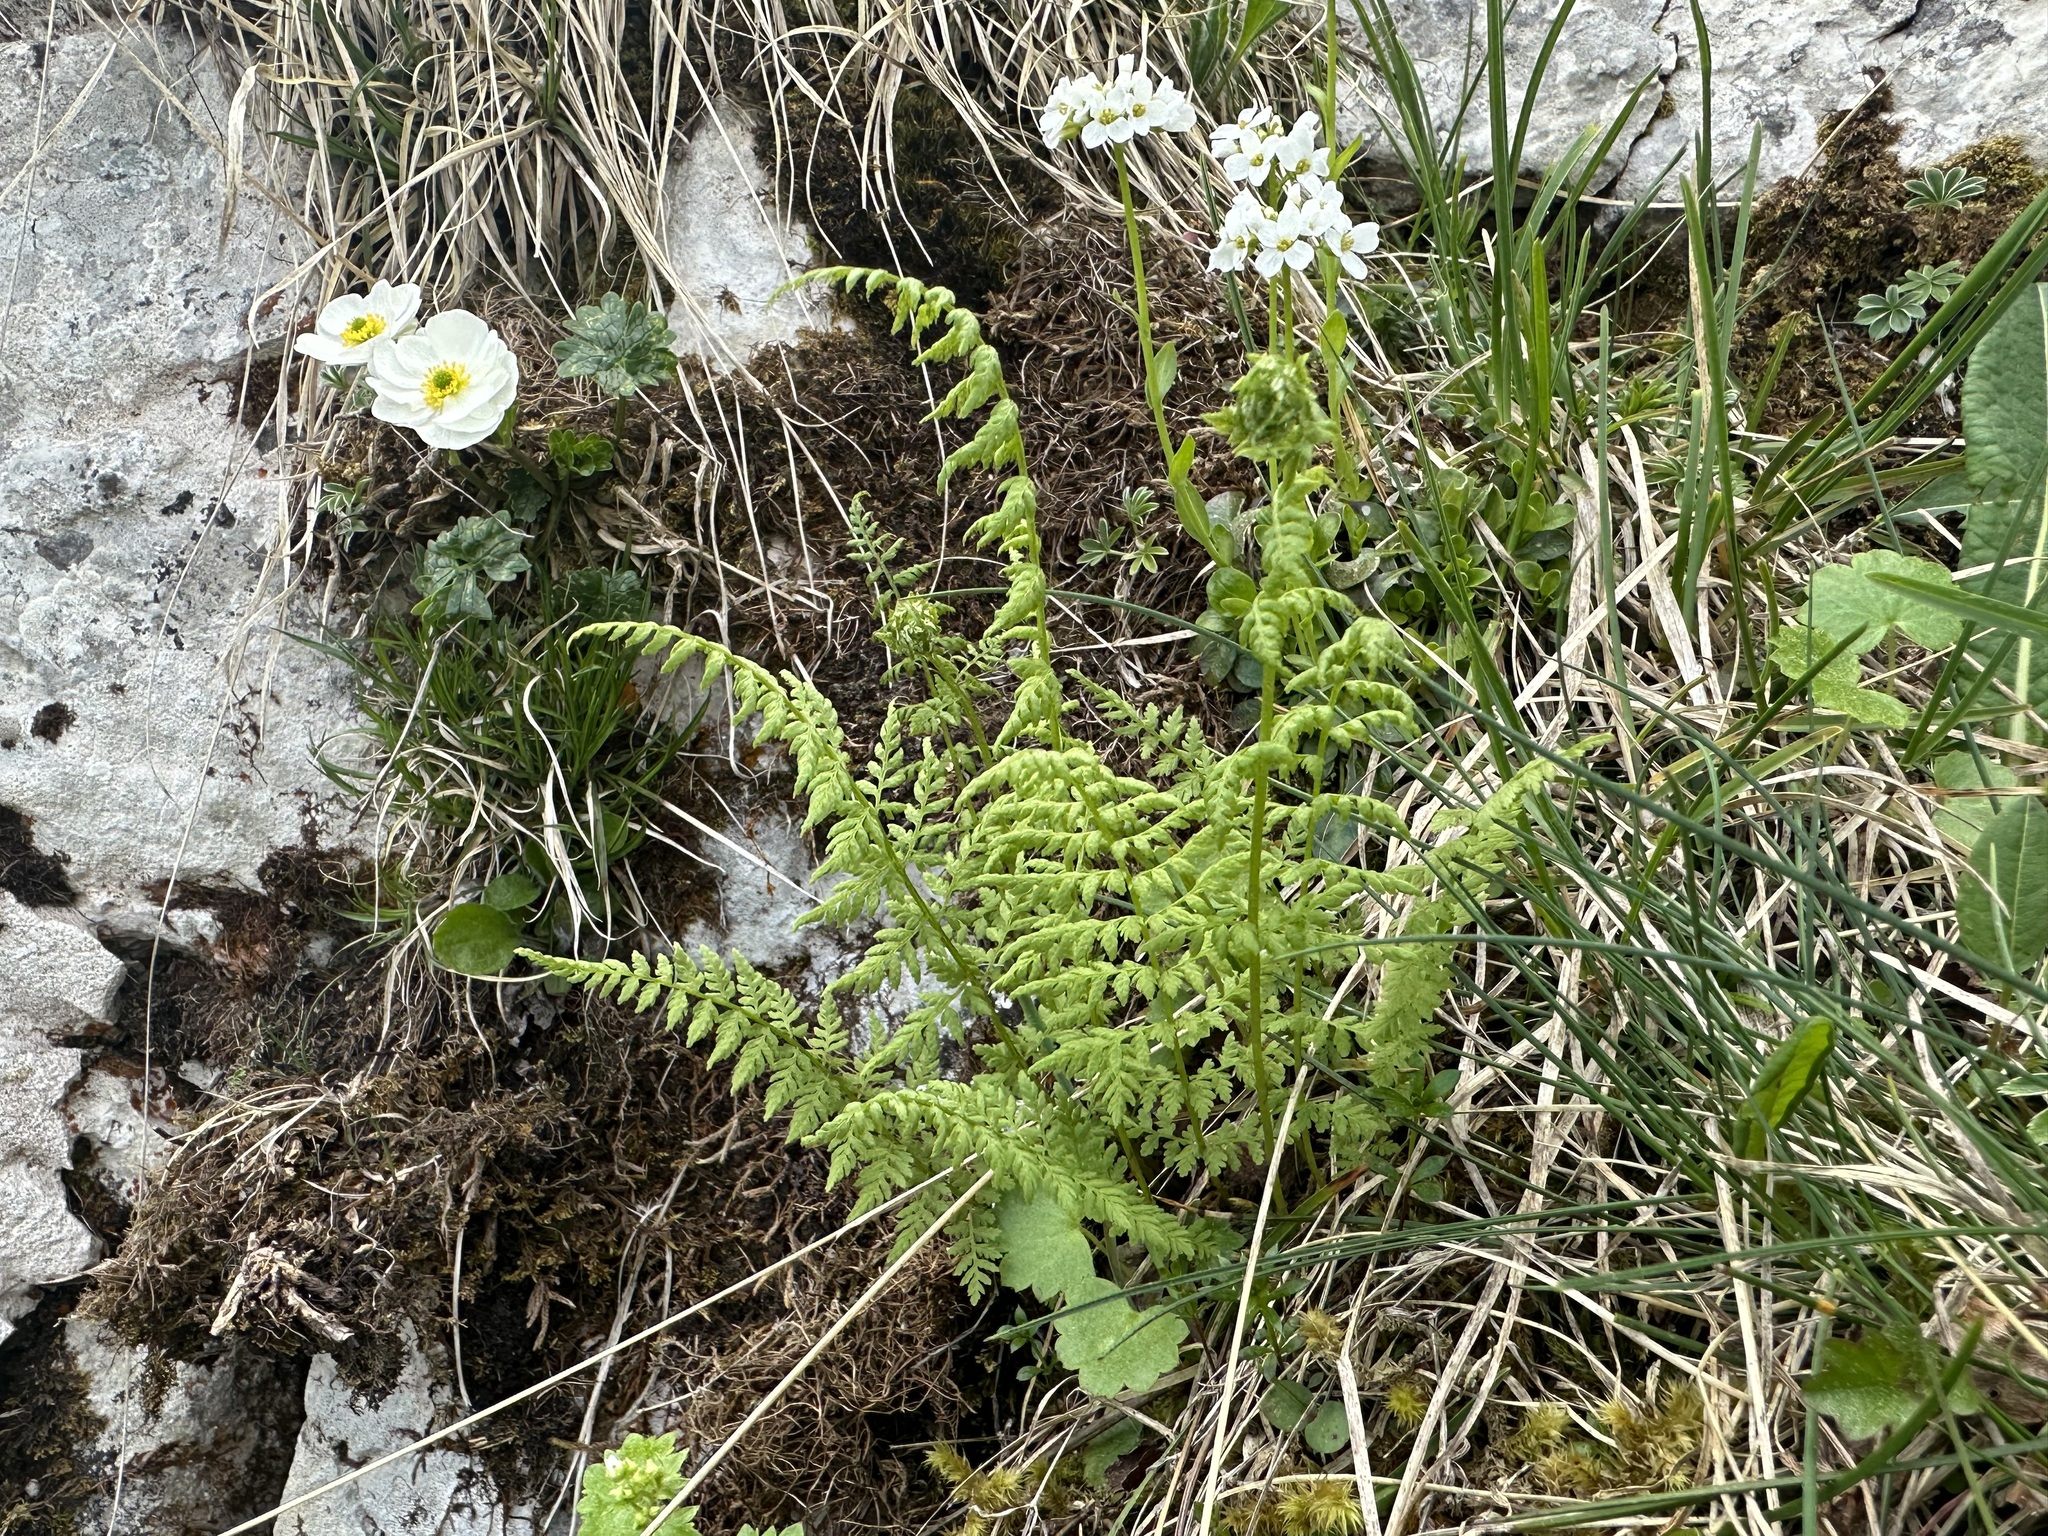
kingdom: Plantae
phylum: Tracheophyta
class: Polypodiopsida
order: Polypodiales
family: Cystopteridaceae
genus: Cystopteris
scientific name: Cystopteris fragilis
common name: Brittle bladder fern
